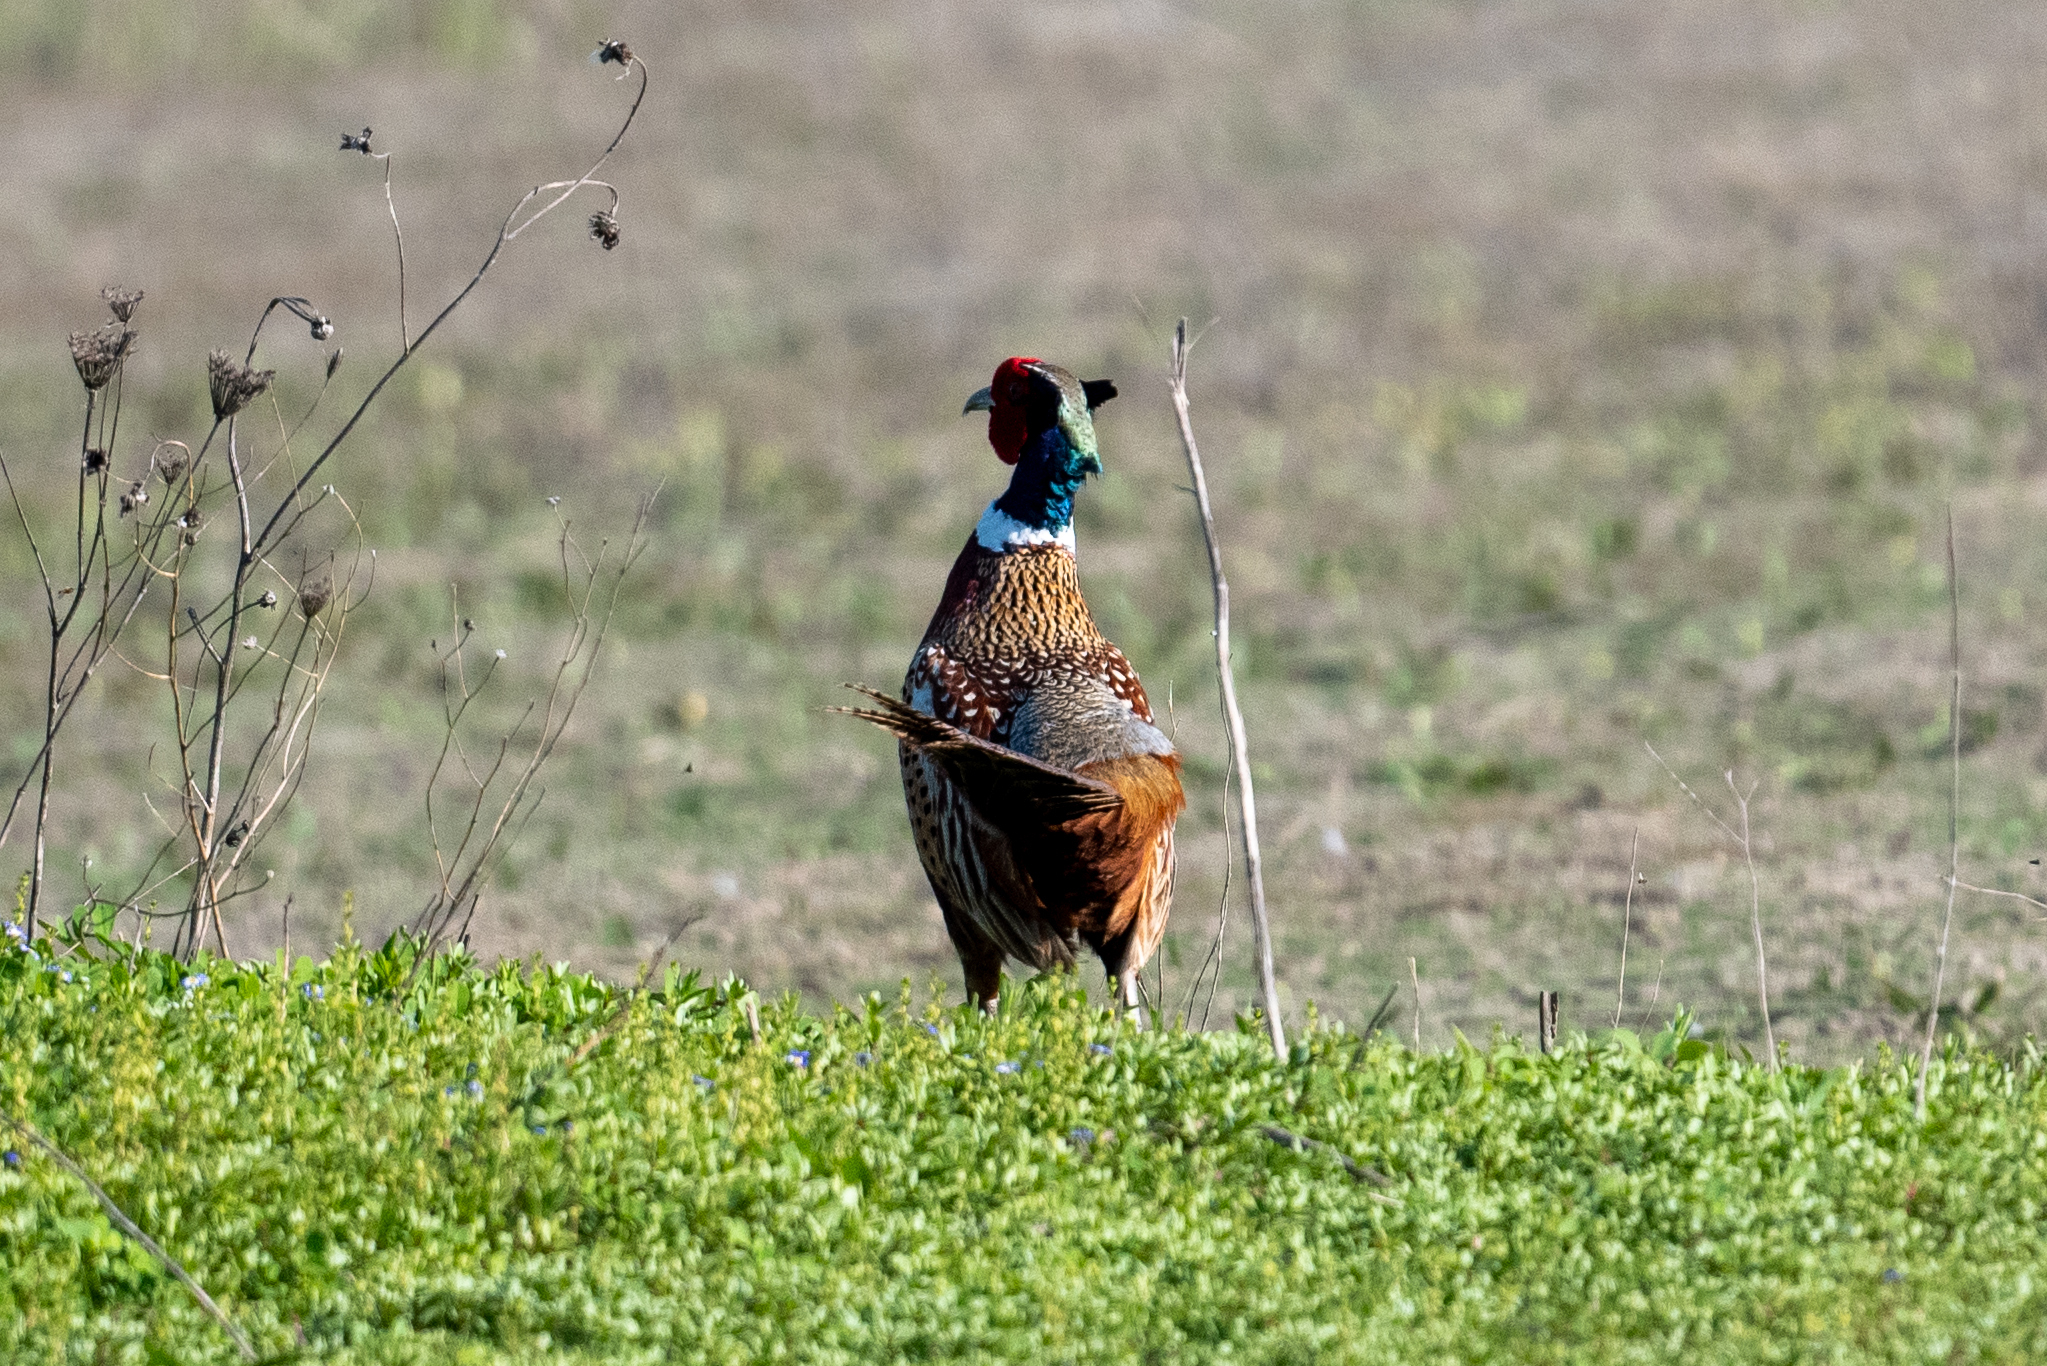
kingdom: Animalia
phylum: Chordata
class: Aves
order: Galliformes
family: Phasianidae
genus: Phasianus
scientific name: Phasianus colchicus
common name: Common pheasant
